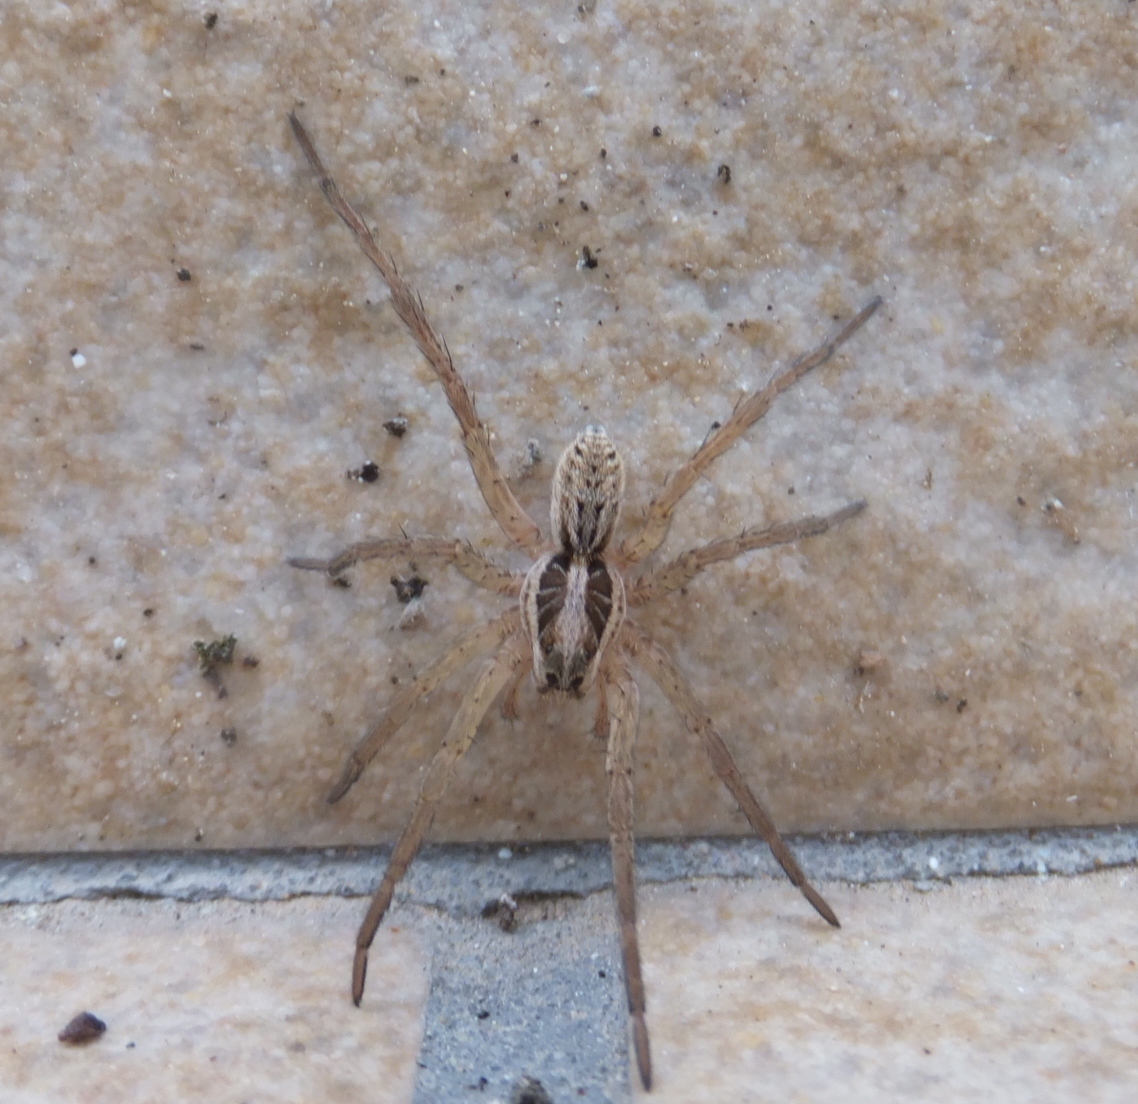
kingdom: Animalia
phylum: Arthropoda
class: Arachnida
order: Araneae
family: Lycosidae
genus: Hogna
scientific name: Hogna radiata
